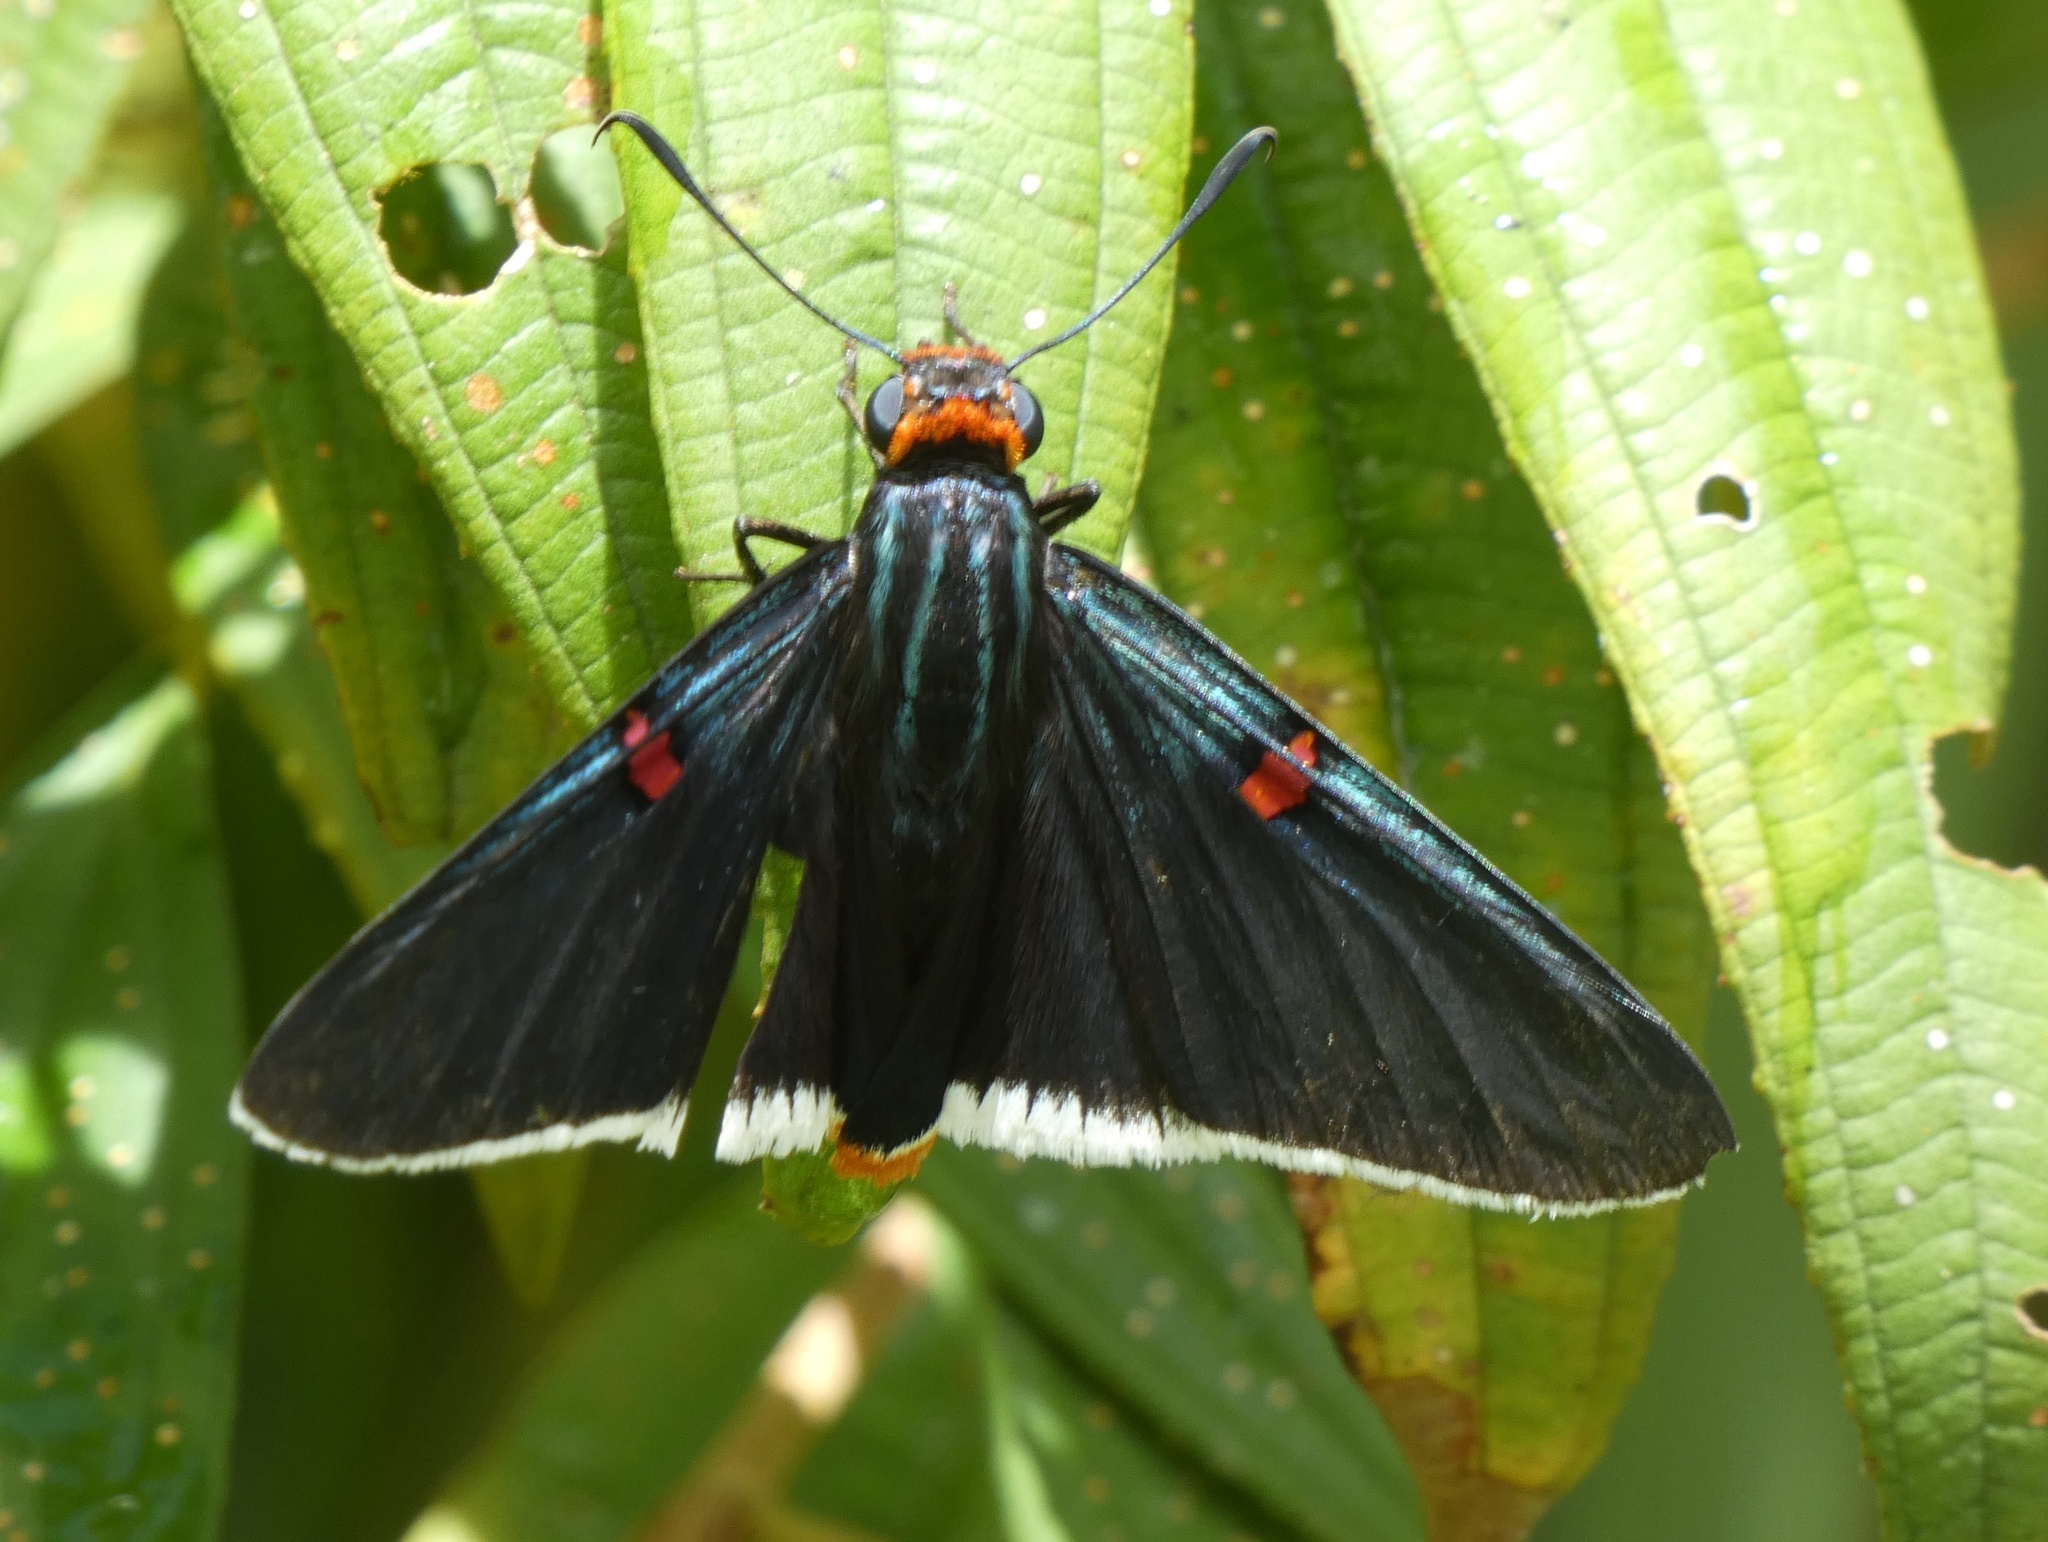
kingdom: Animalia
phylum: Arthropoda
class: Insecta
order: Lepidoptera
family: Hesperiidae
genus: Phocides
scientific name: Phocides polybius
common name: Guava skipper
